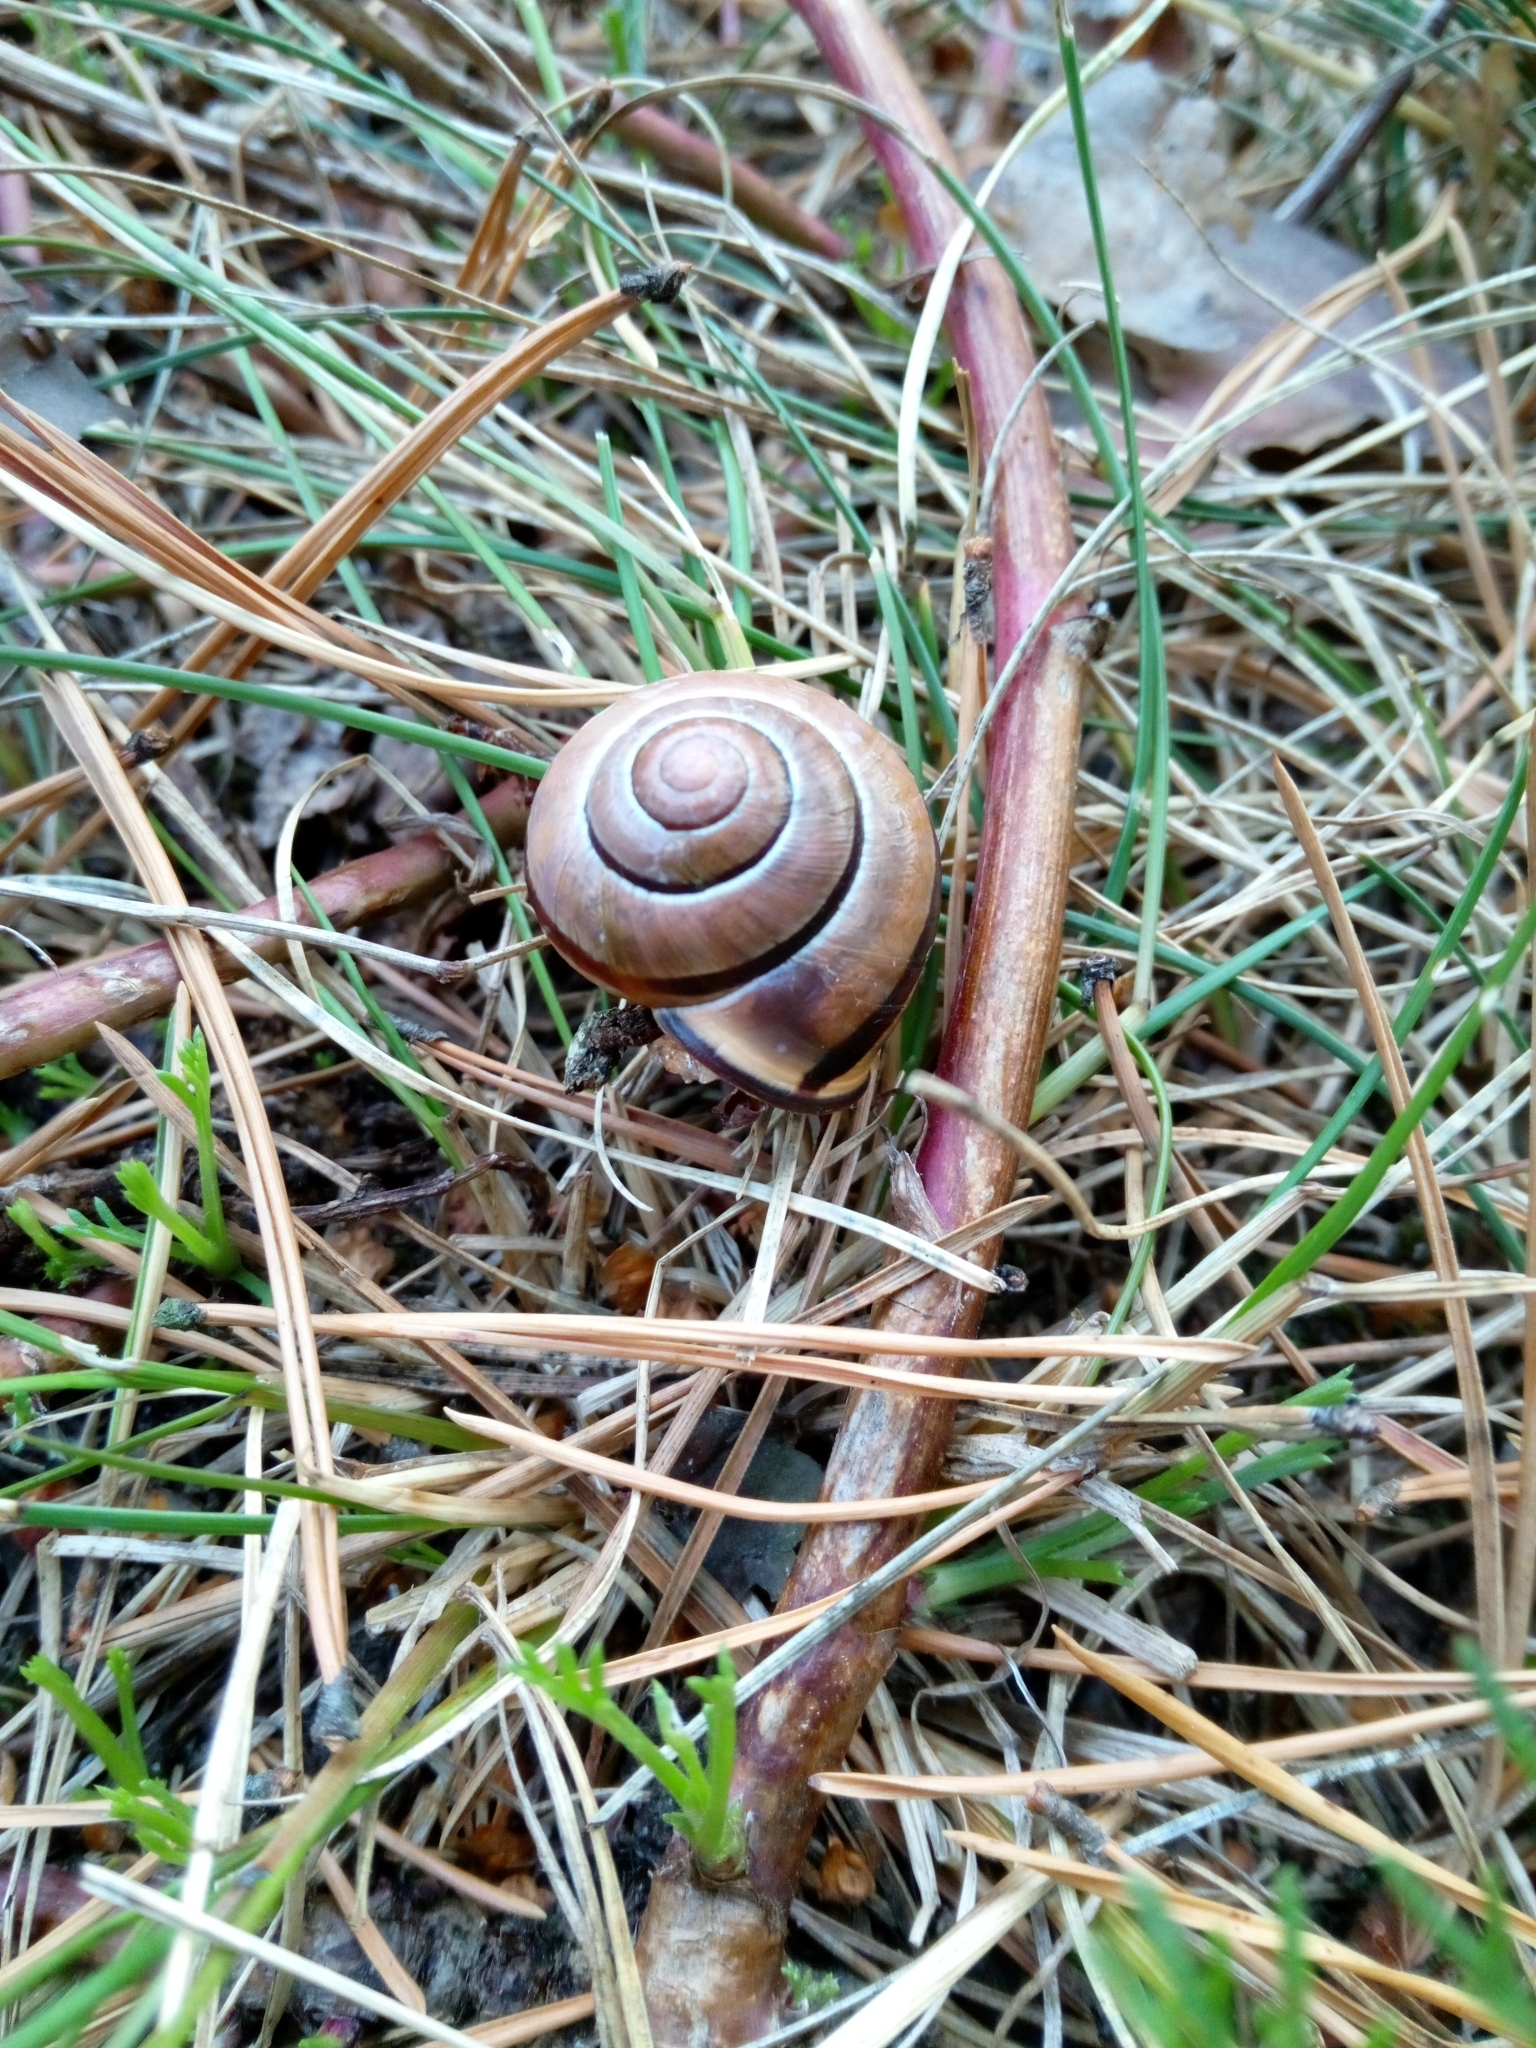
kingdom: Animalia
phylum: Mollusca
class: Gastropoda
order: Stylommatophora
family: Helicidae
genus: Cepaea
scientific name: Cepaea nemoralis
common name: Grovesnail
